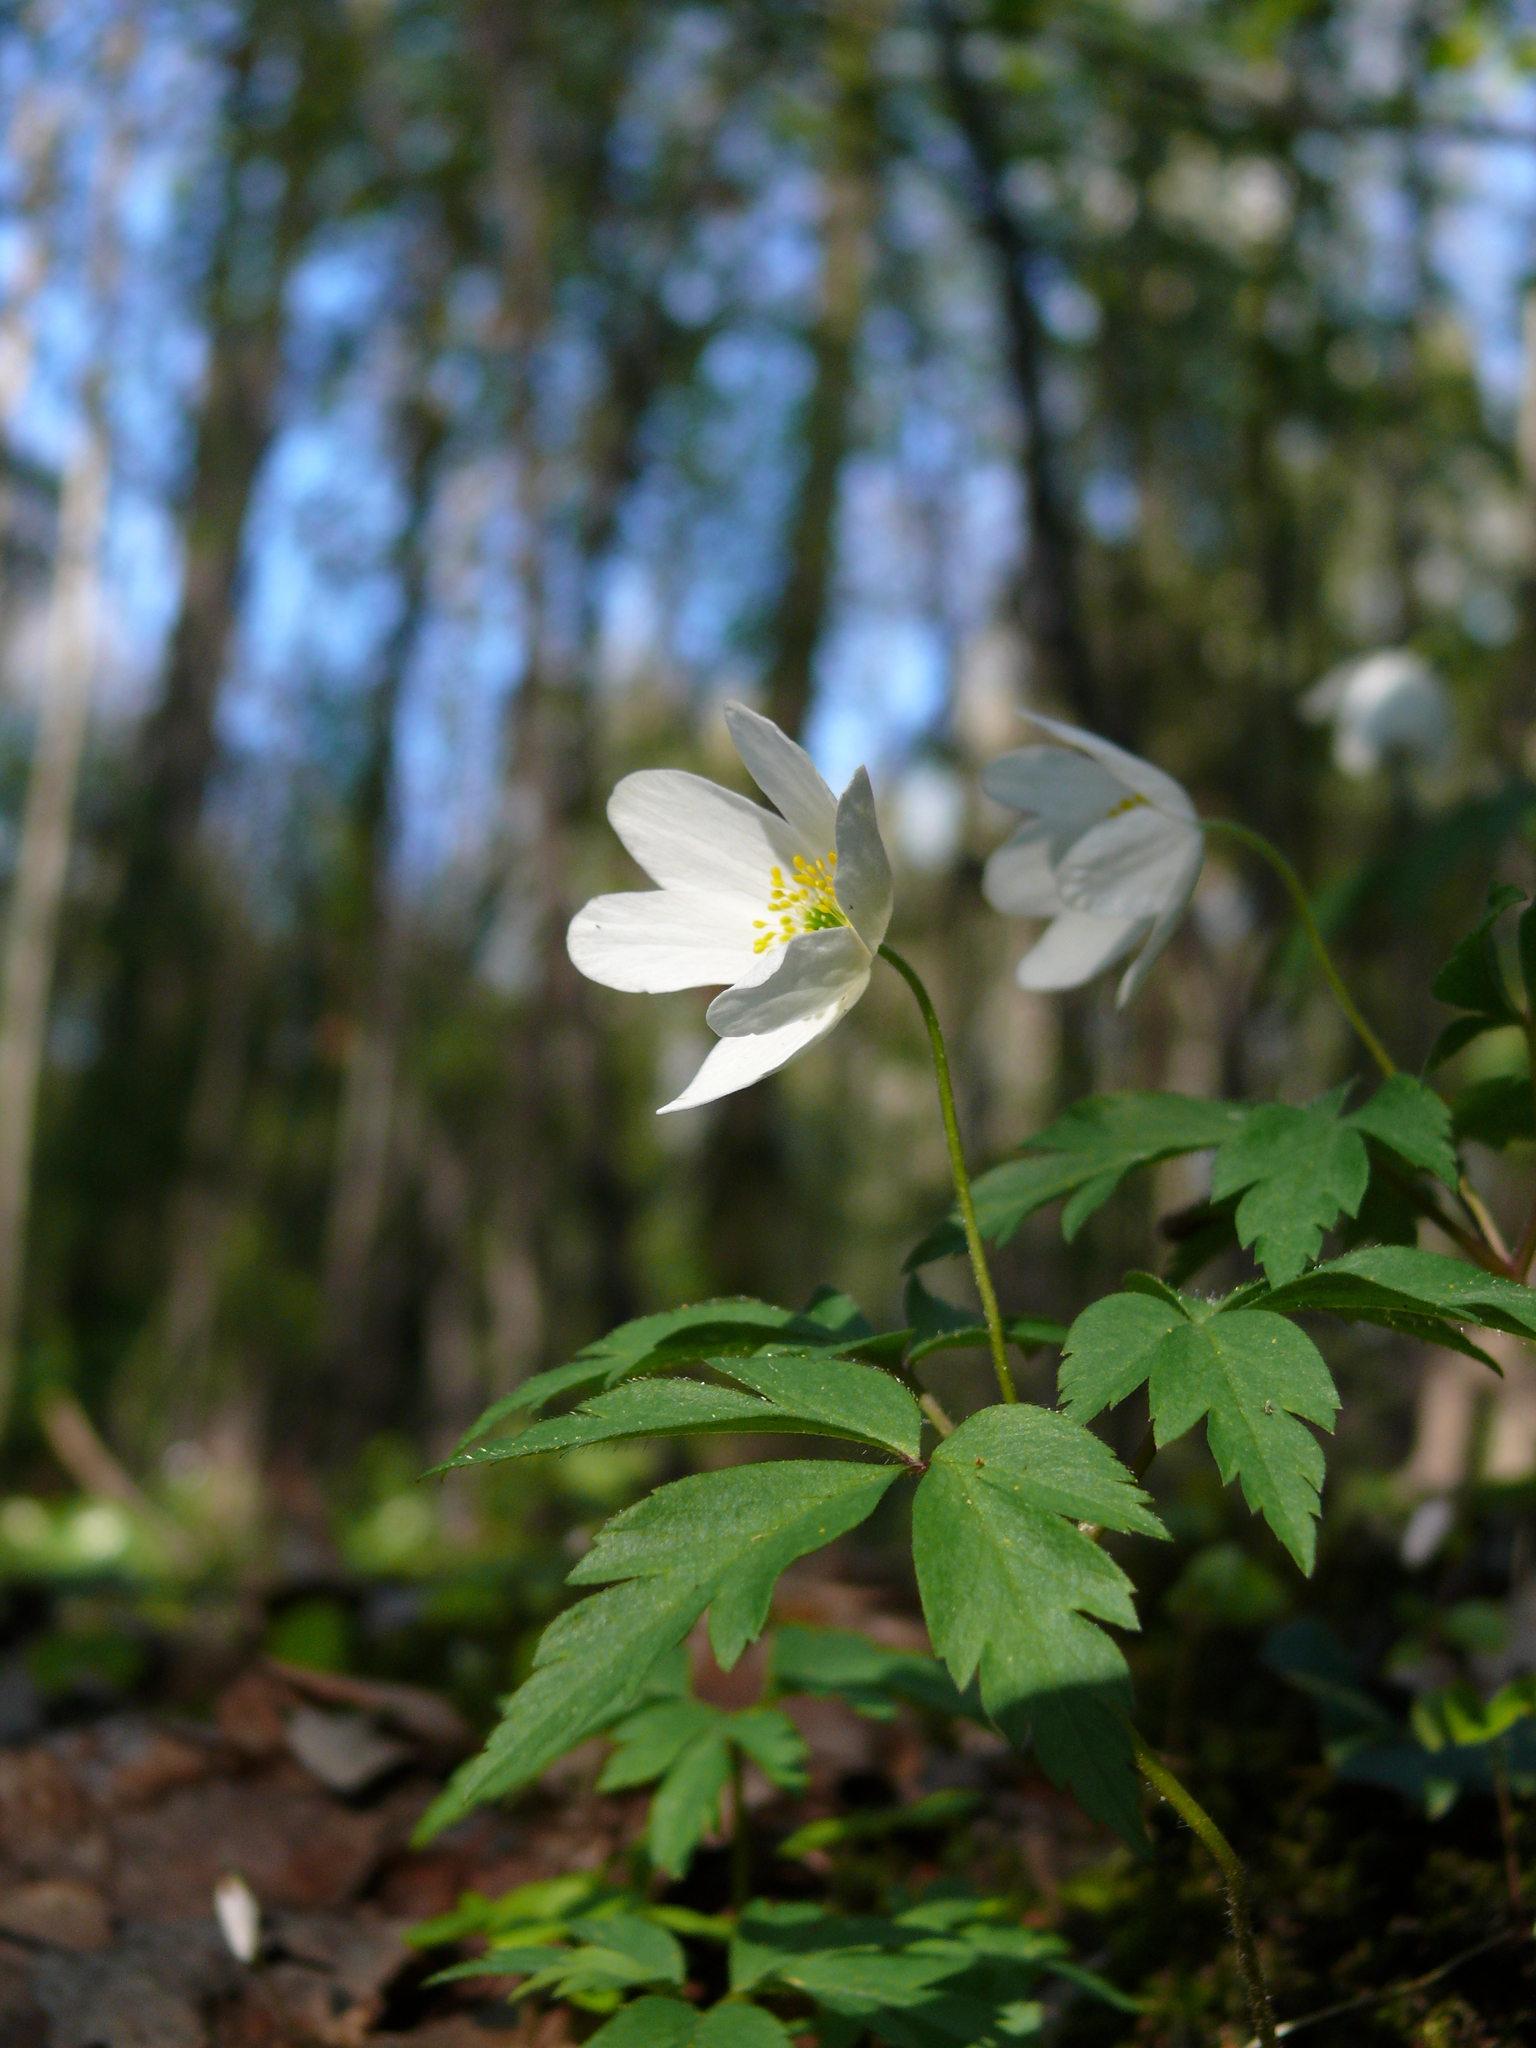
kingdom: Plantae
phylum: Tracheophyta
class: Magnoliopsida
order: Ranunculales
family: Ranunculaceae
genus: Anemone
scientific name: Anemone nemorosa
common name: Wood anemone
